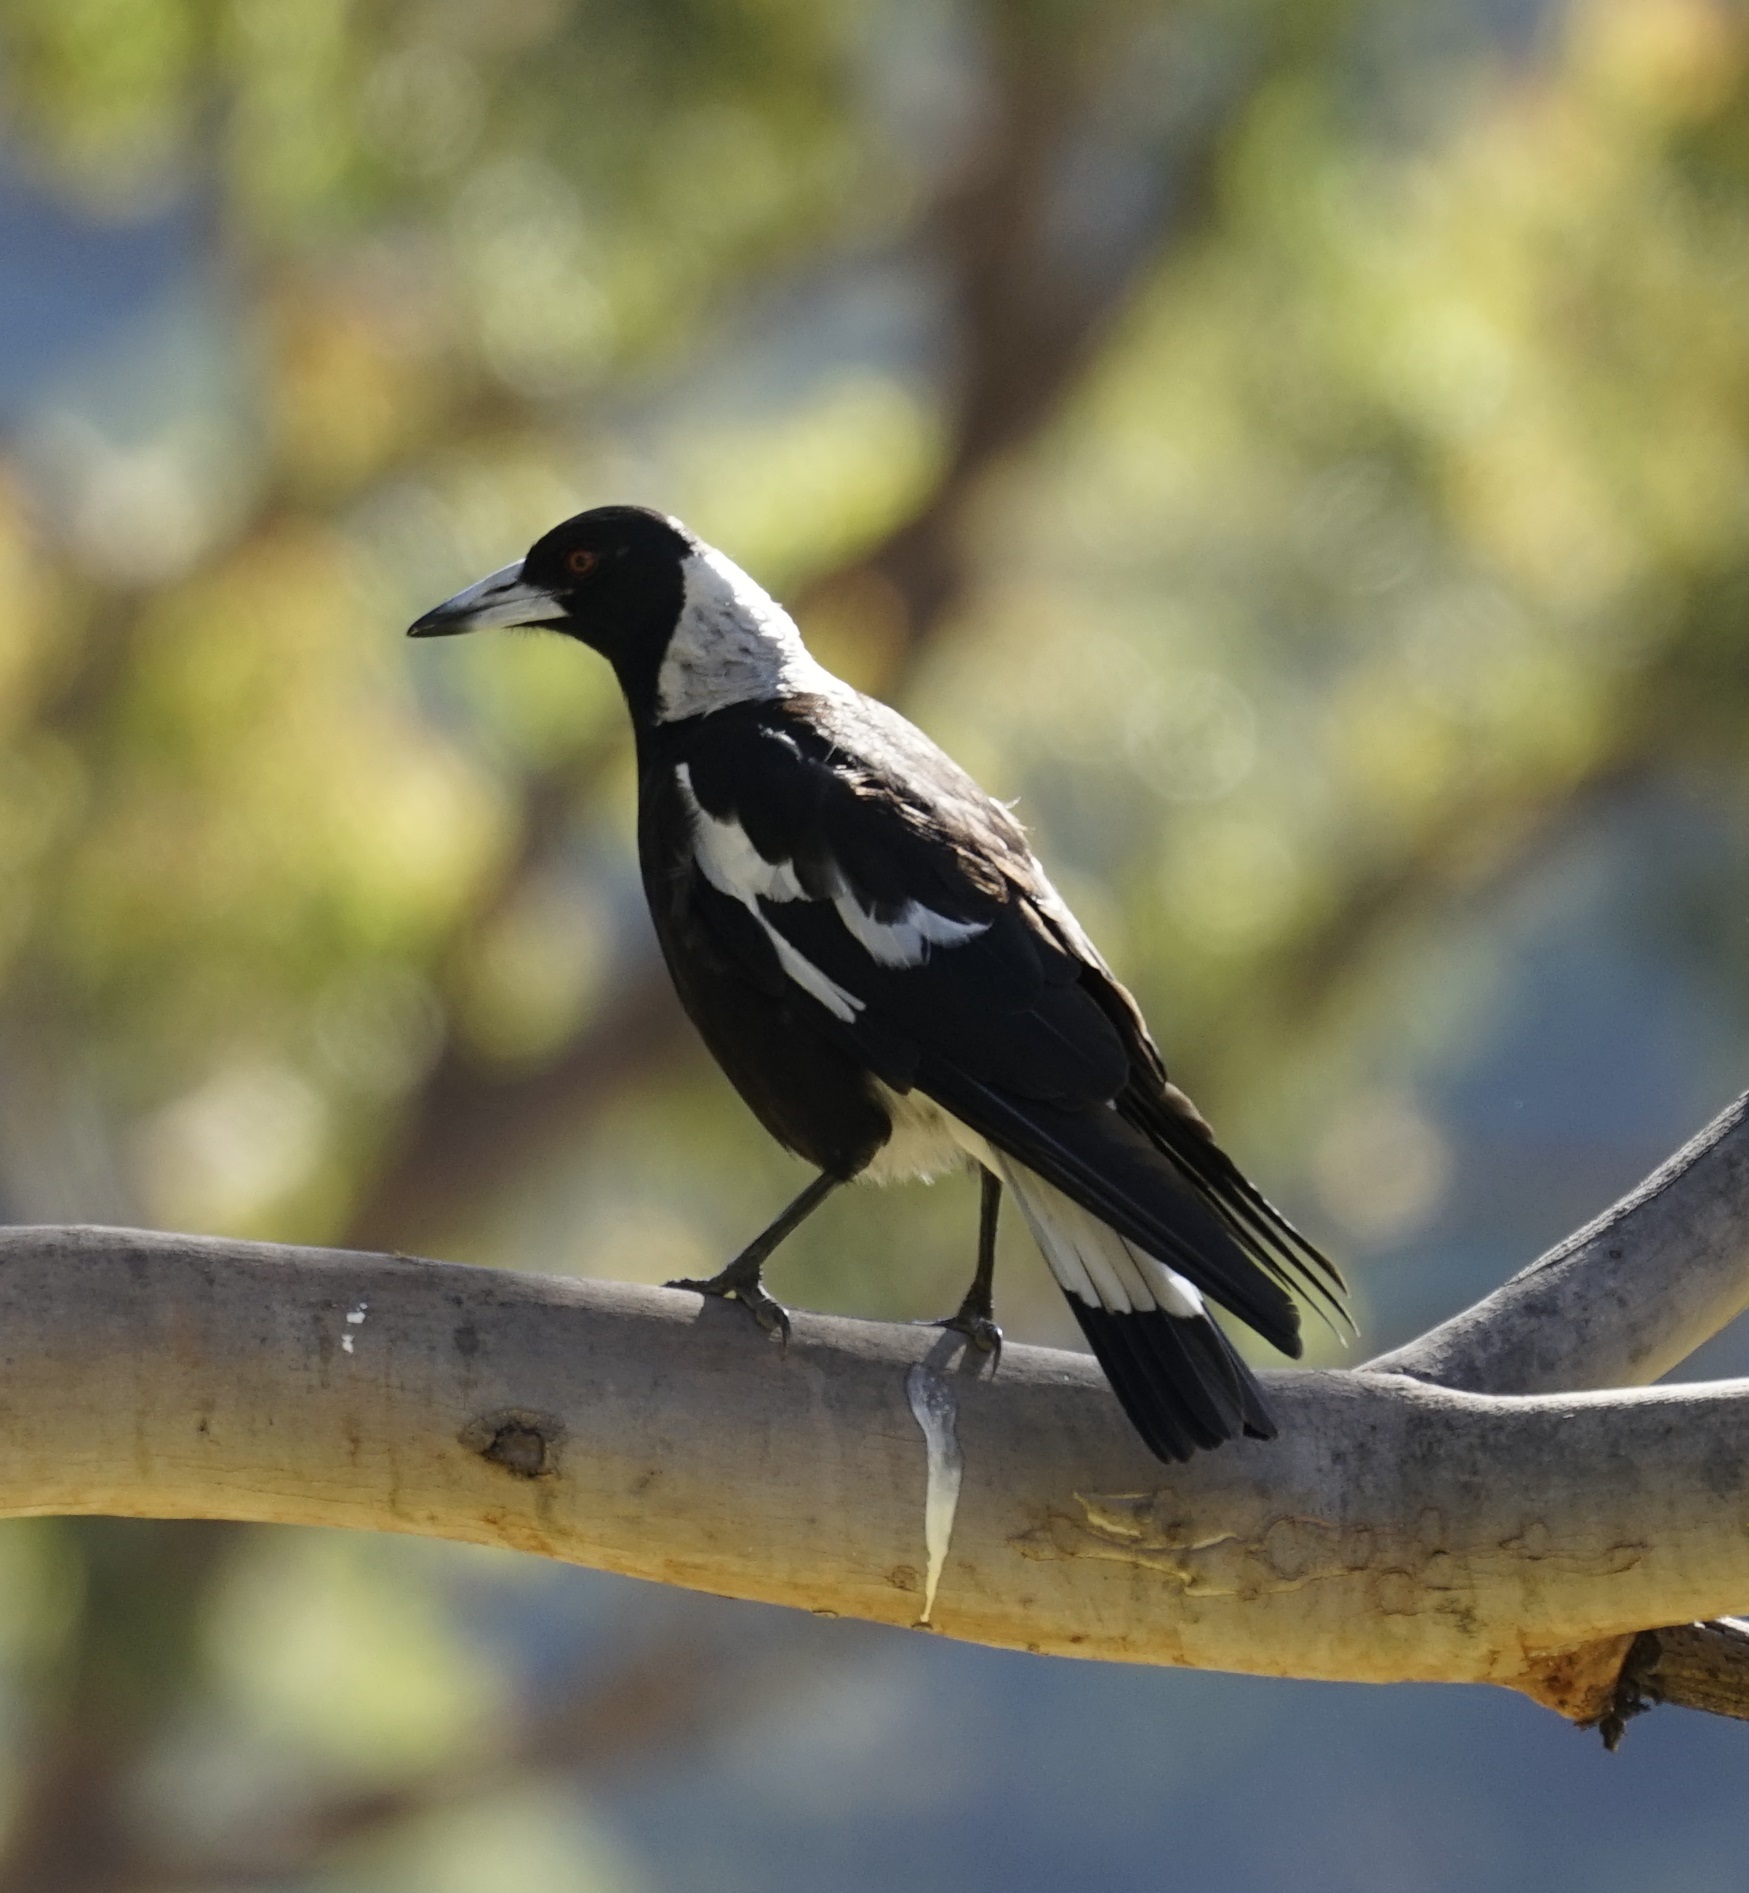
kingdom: Animalia
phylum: Chordata
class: Aves
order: Passeriformes
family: Cracticidae
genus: Gymnorhina
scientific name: Gymnorhina tibicen
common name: Australian magpie
